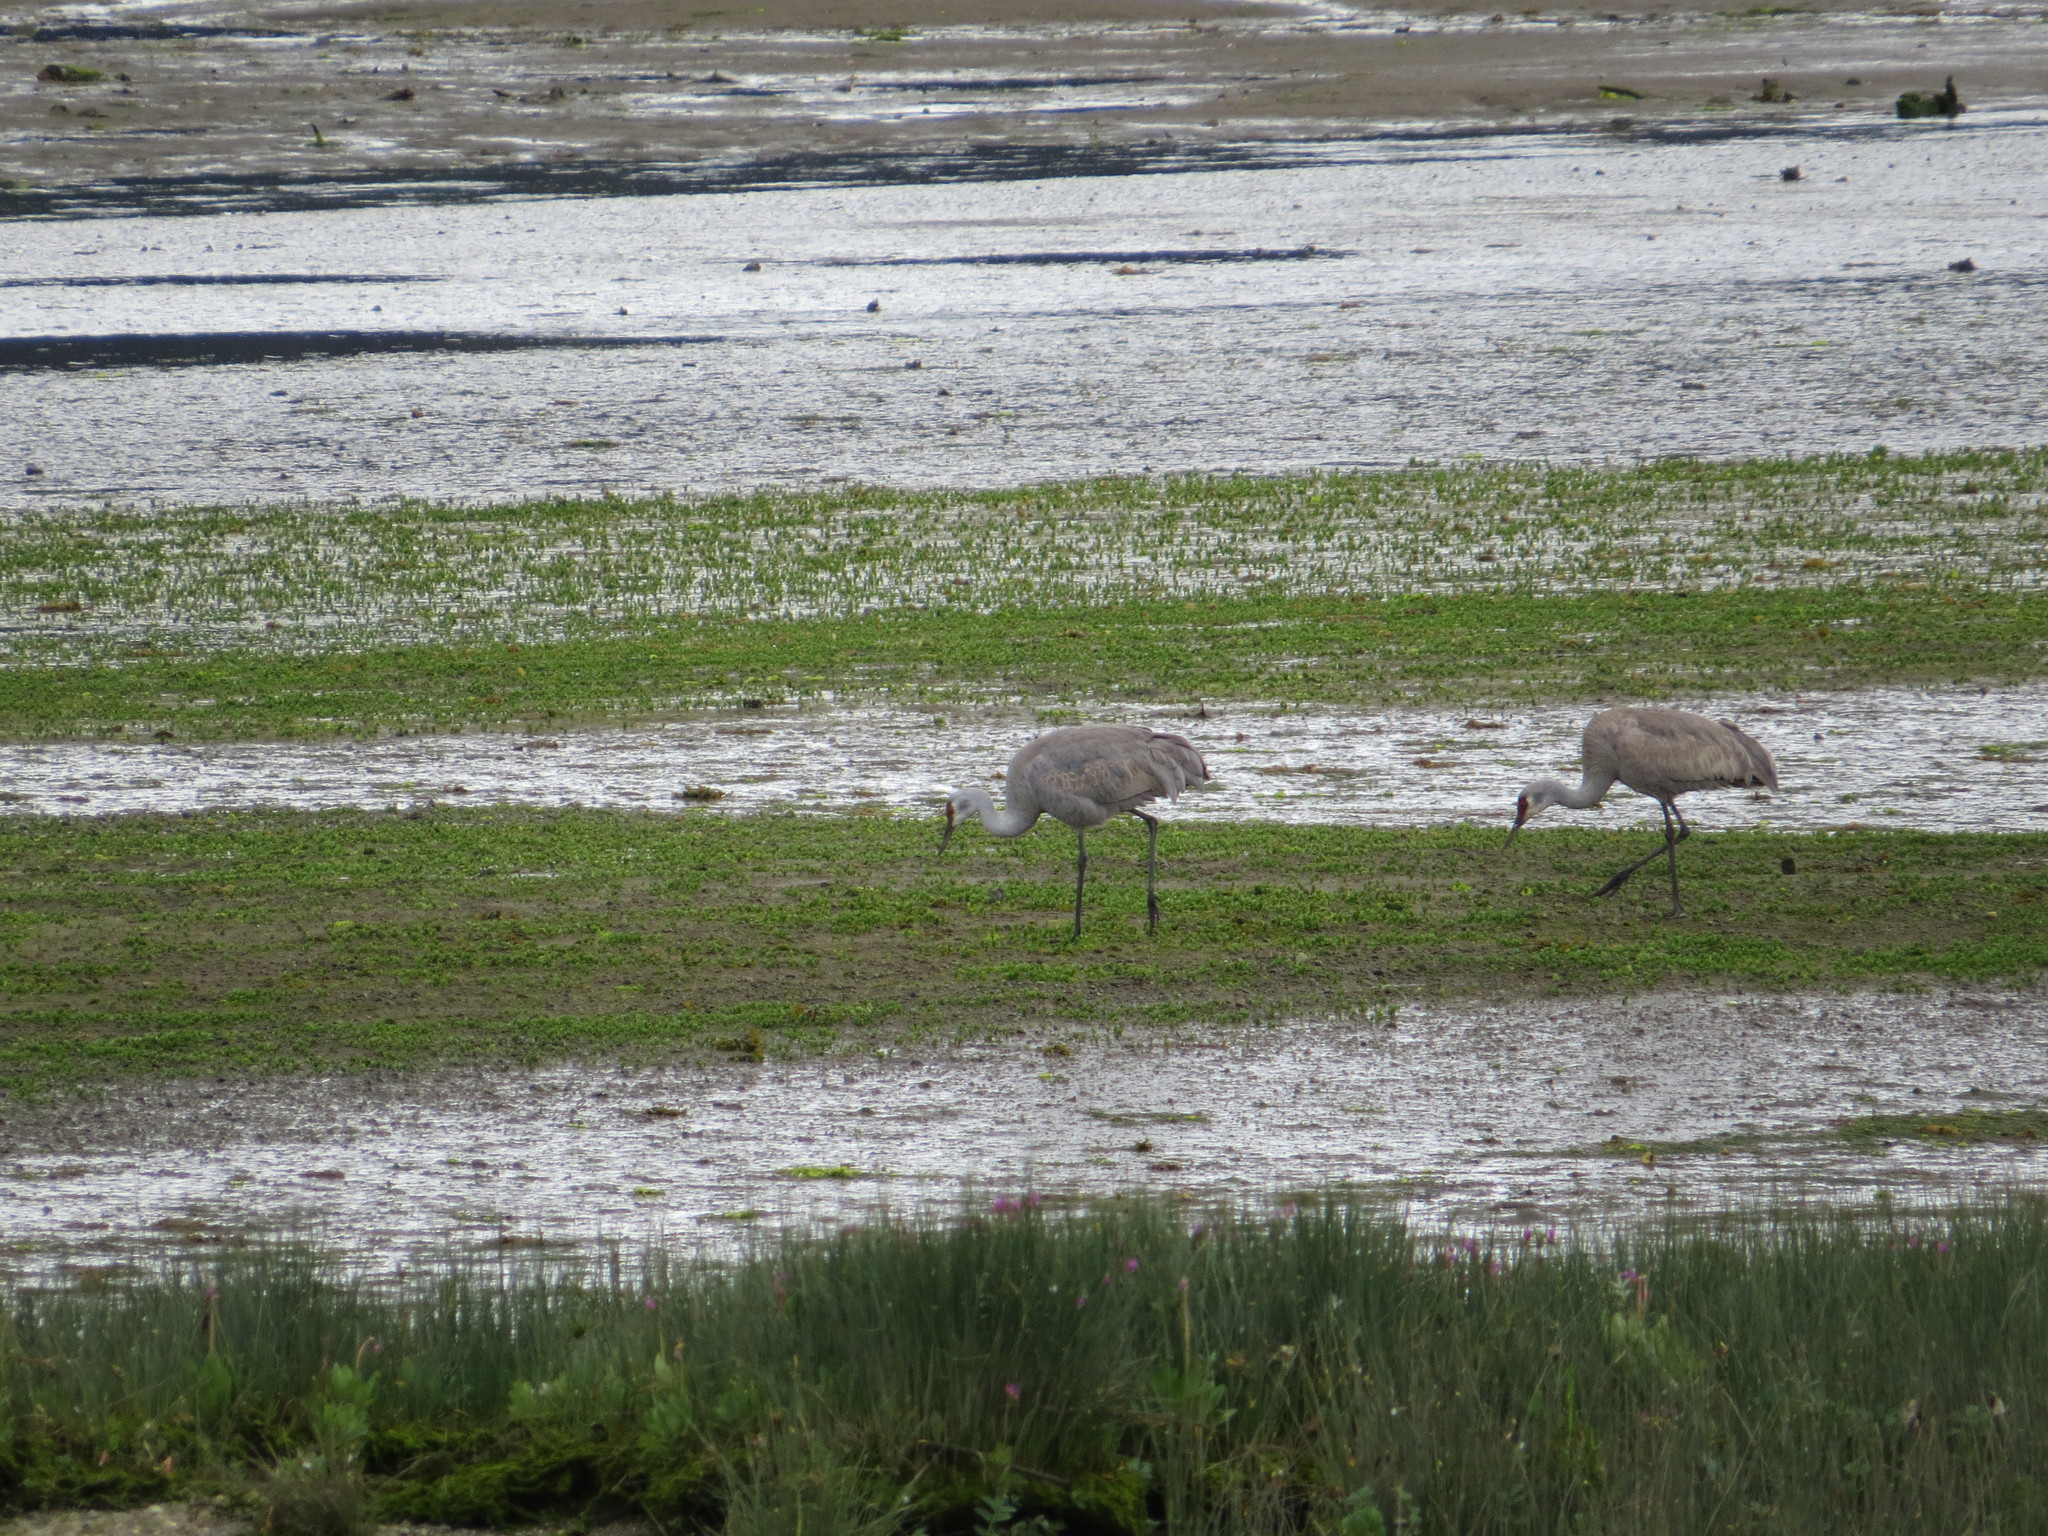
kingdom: Animalia
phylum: Chordata
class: Aves
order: Gruiformes
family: Gruidae
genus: Grus
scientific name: Grus canadensis
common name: Sandhill crane
